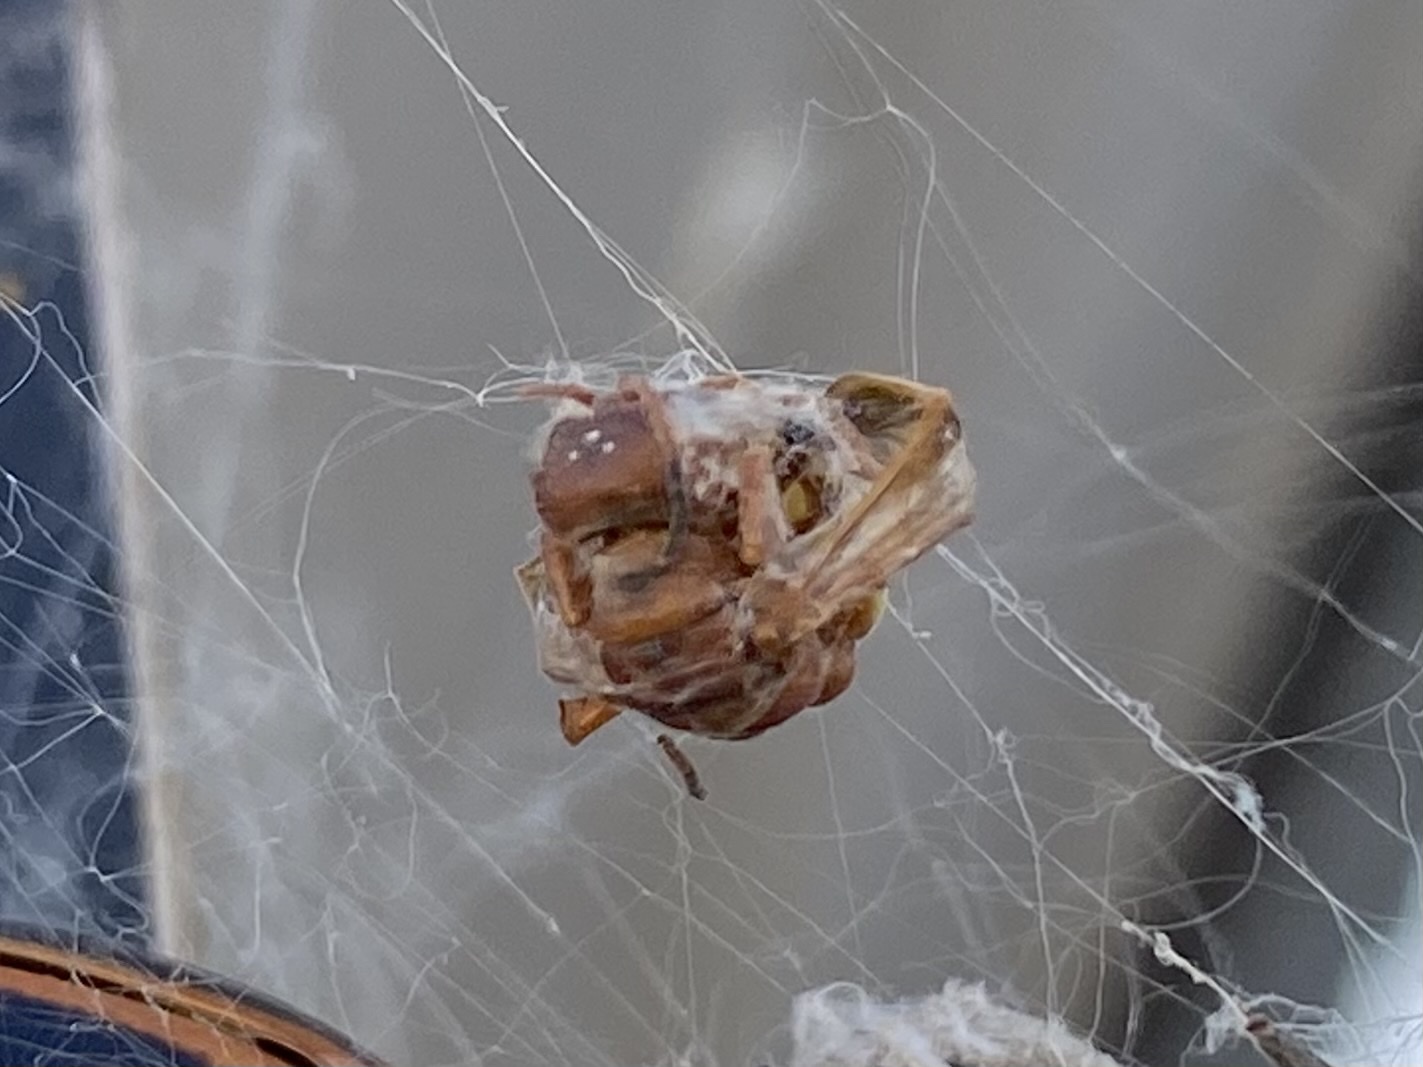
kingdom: Animalia
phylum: Arthropoda
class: Insecta
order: Hymenoptera
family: Crabronidae
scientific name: Crabronidae
